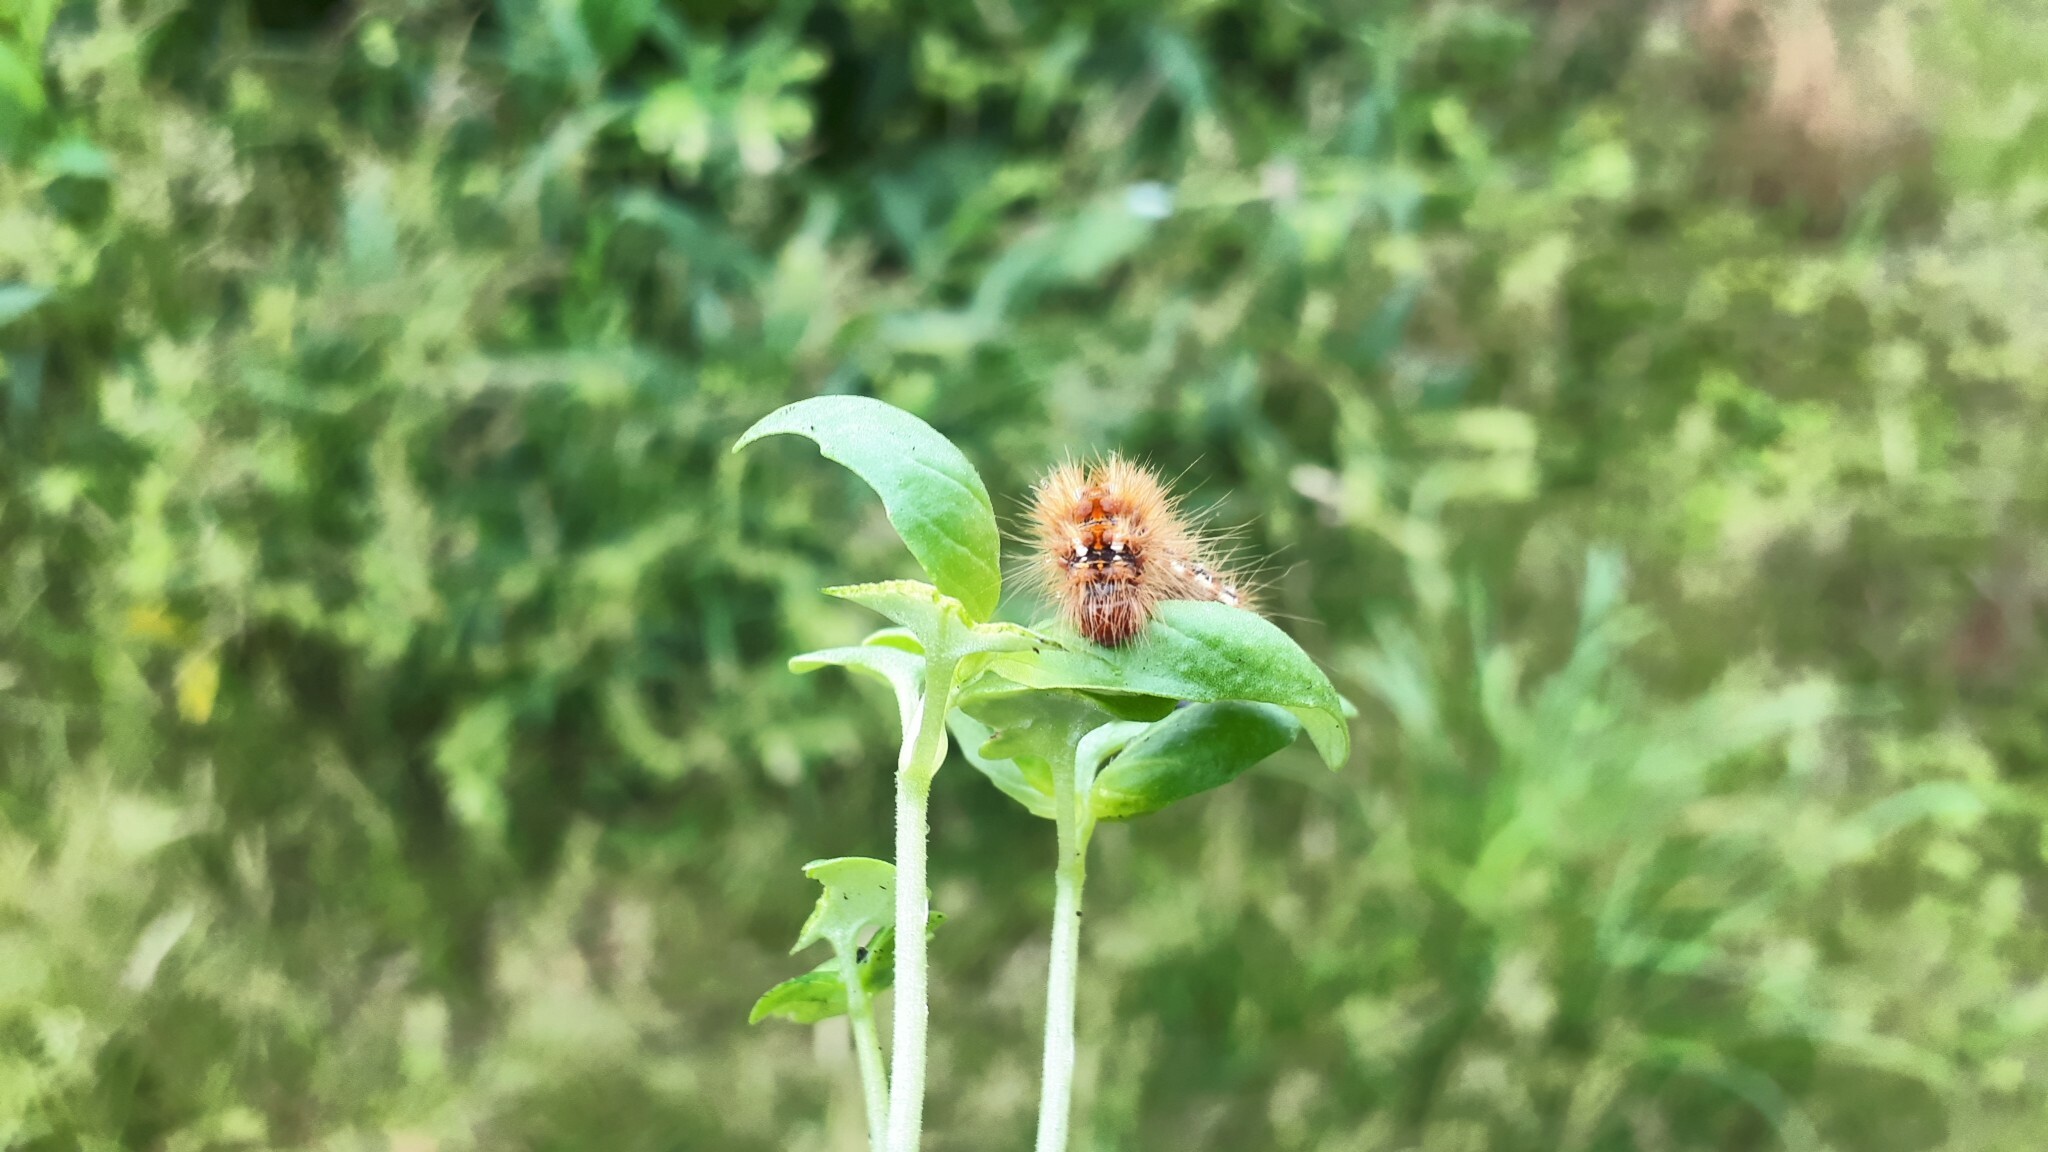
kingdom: Animalia
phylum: Arthropoda
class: Insecta
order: Lepidoptera
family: Noctuidae
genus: Acronicta
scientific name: Acronicta rumicis
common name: Knot grass
